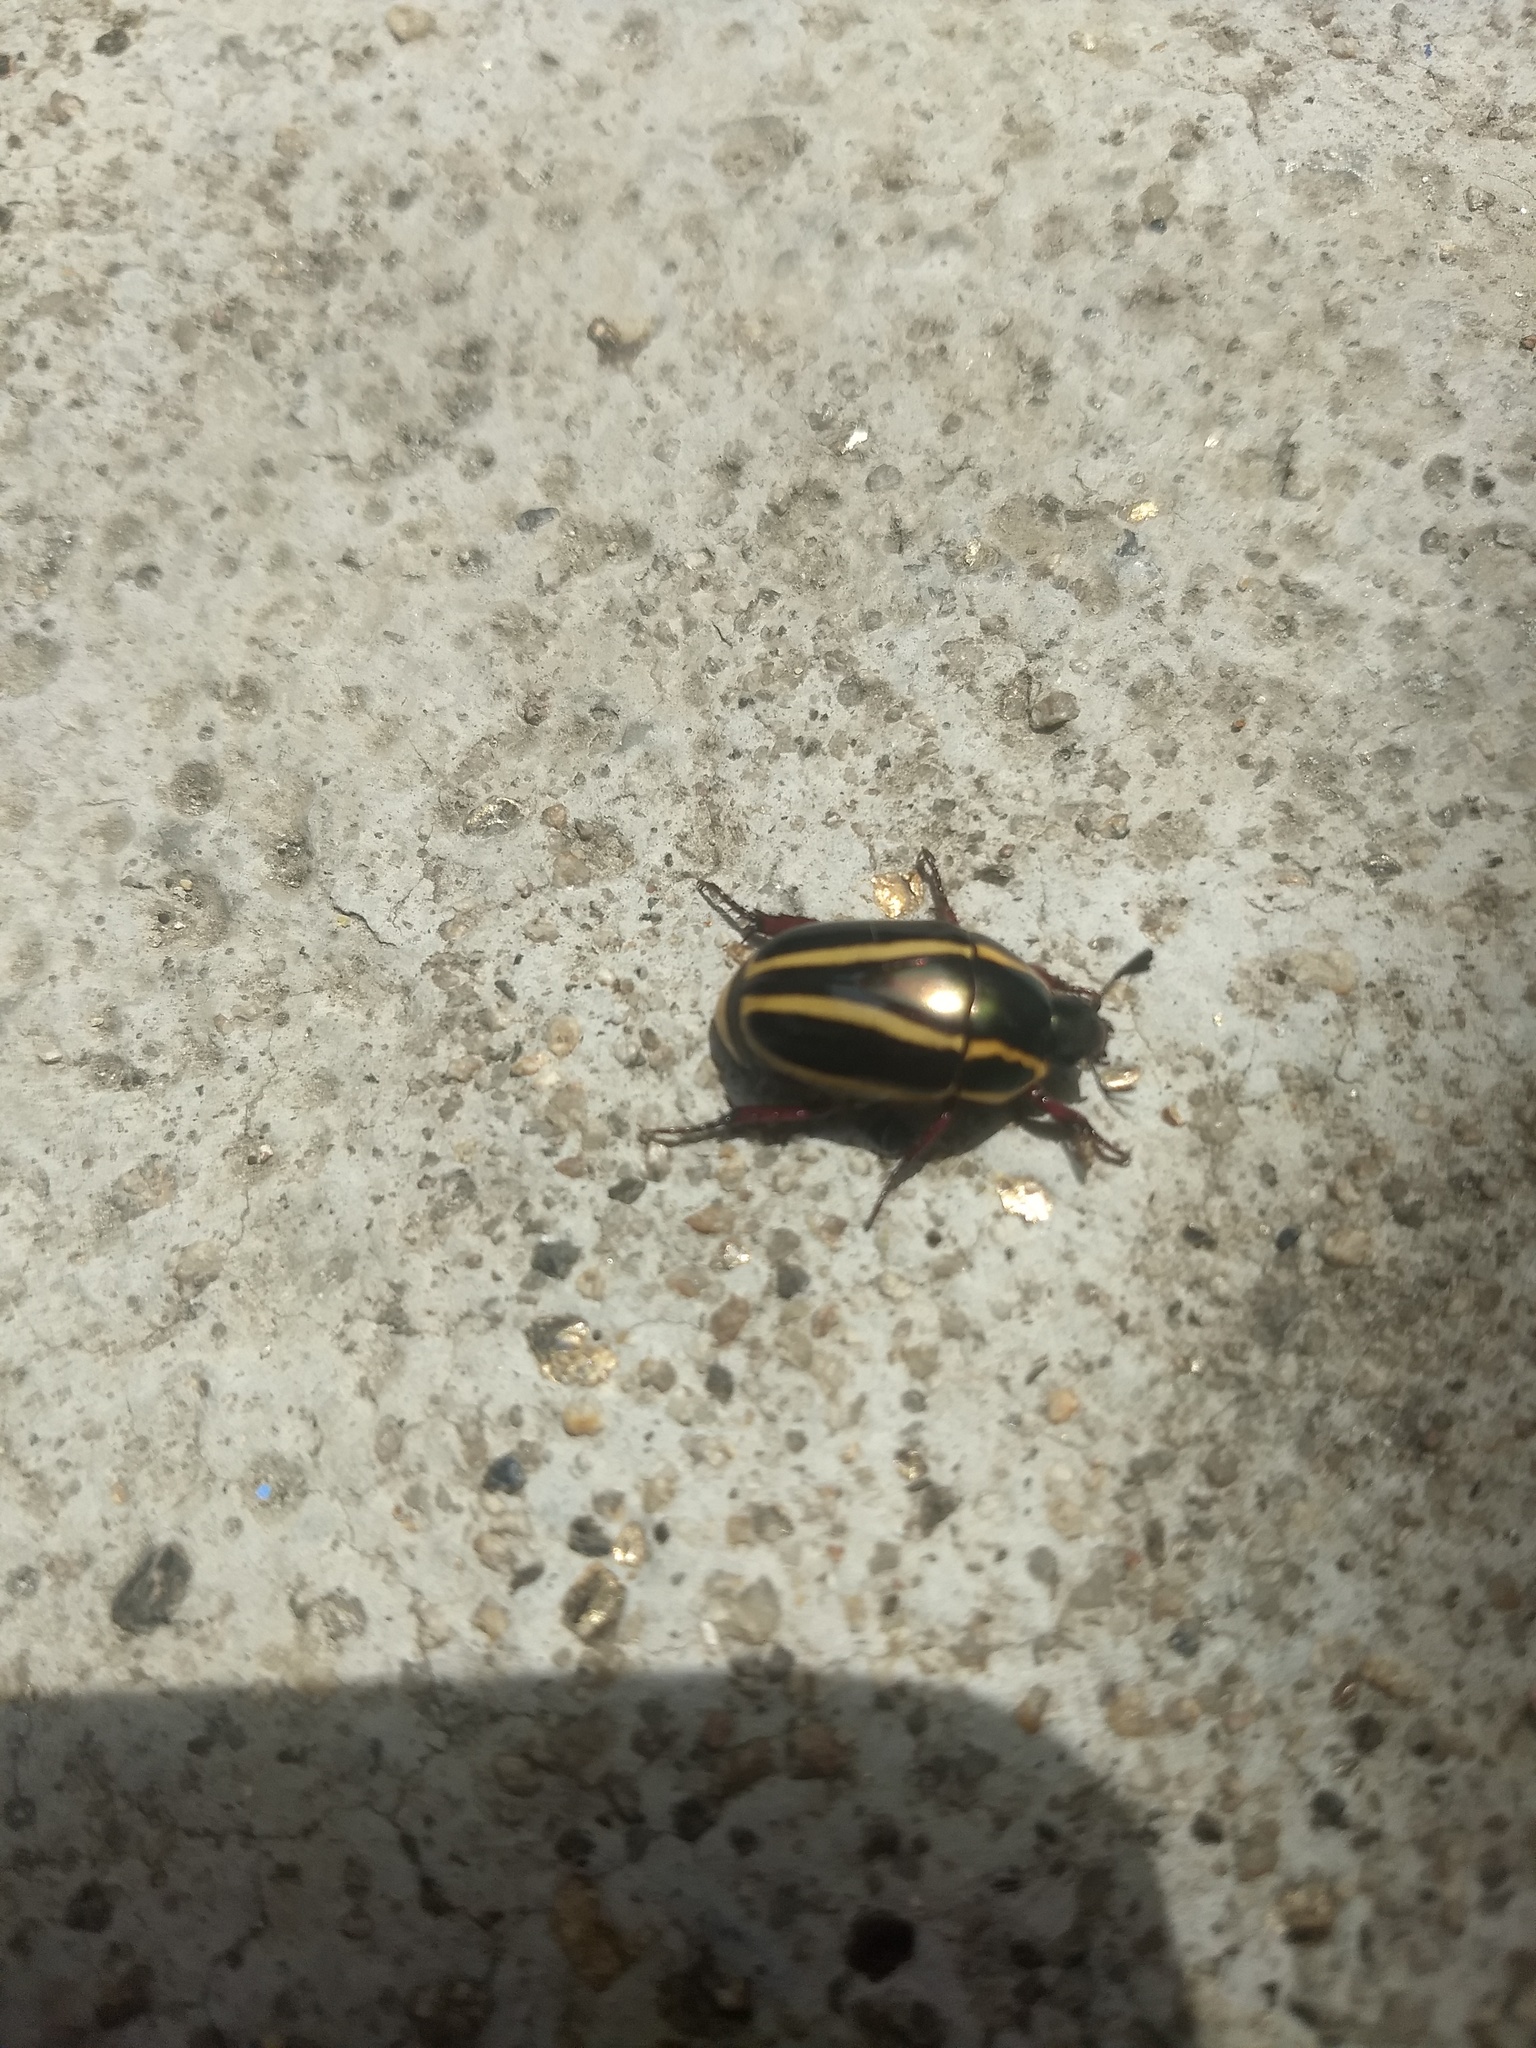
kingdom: Animalia
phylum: Arthropoda
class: Insecta
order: Coleoptera
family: Scarabaeidae
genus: Macraspis
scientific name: Macraspis jamesi
